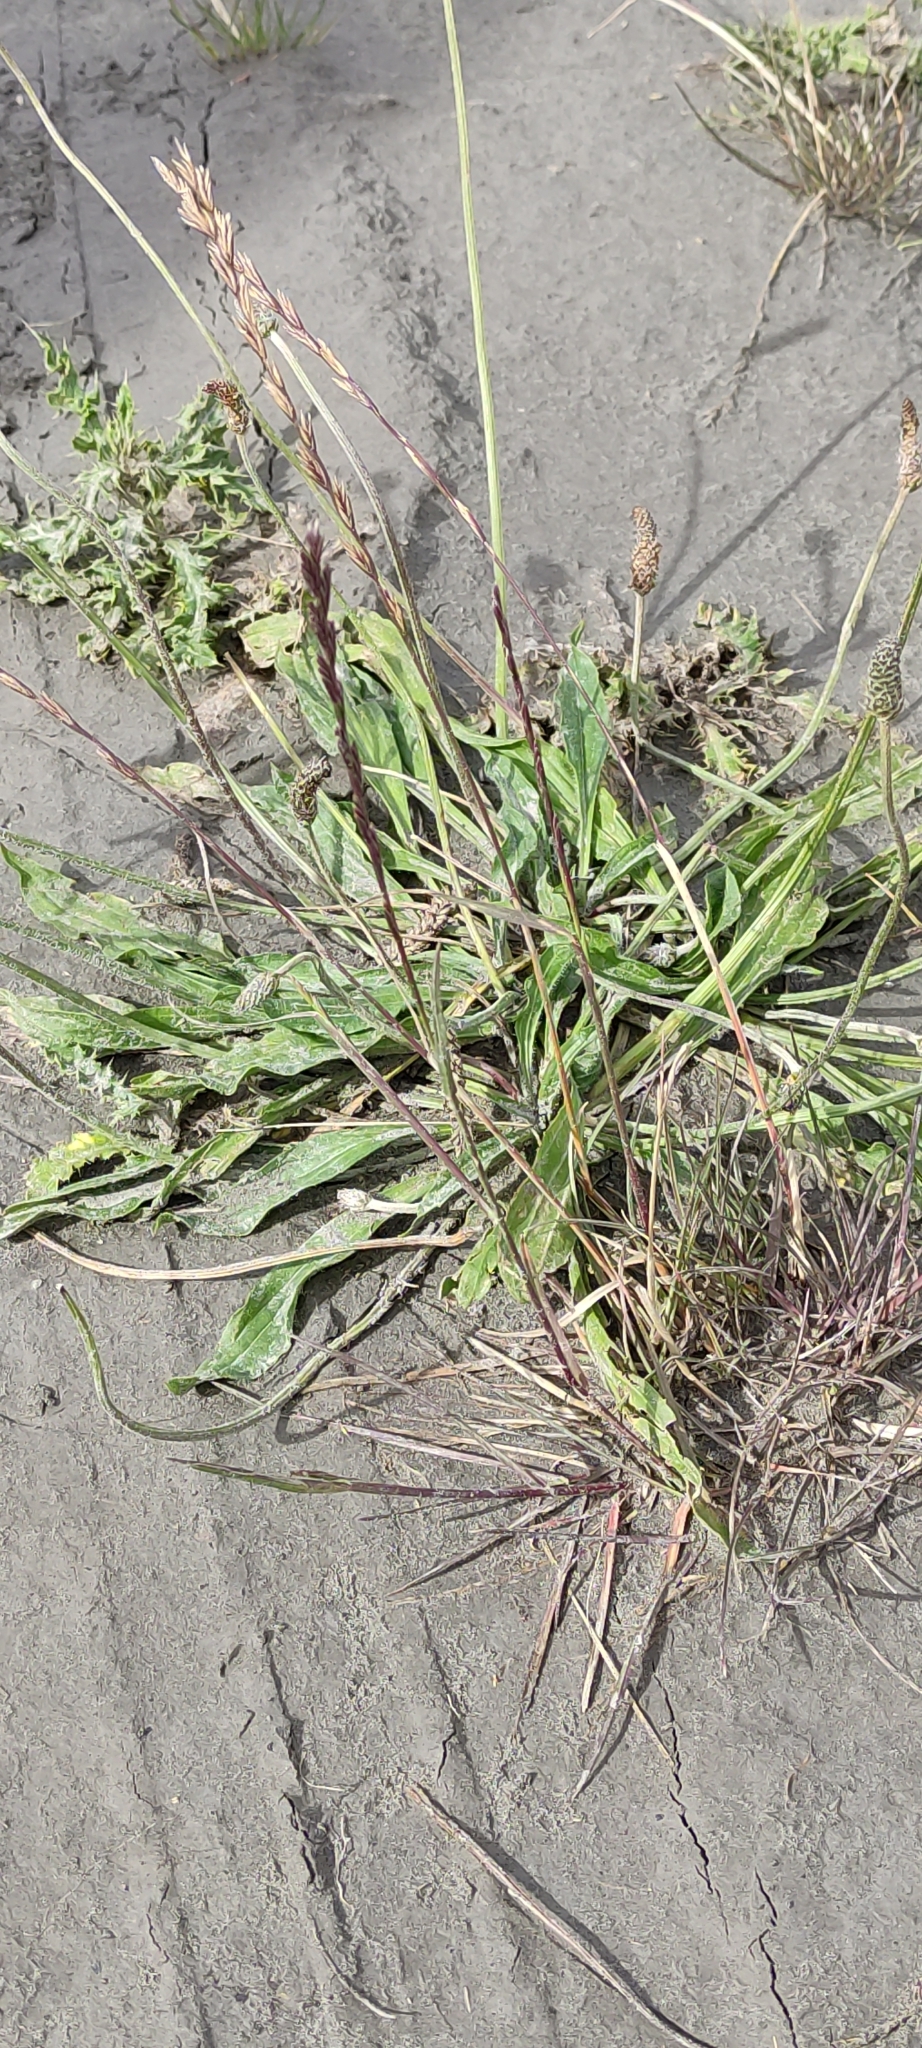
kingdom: Plantae
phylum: Tracheophyta
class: Magnoliopsida
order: Lamiales
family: Plantaginaceae
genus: Plantago
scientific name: Plantago lanceolata
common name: Ribwort plantain
